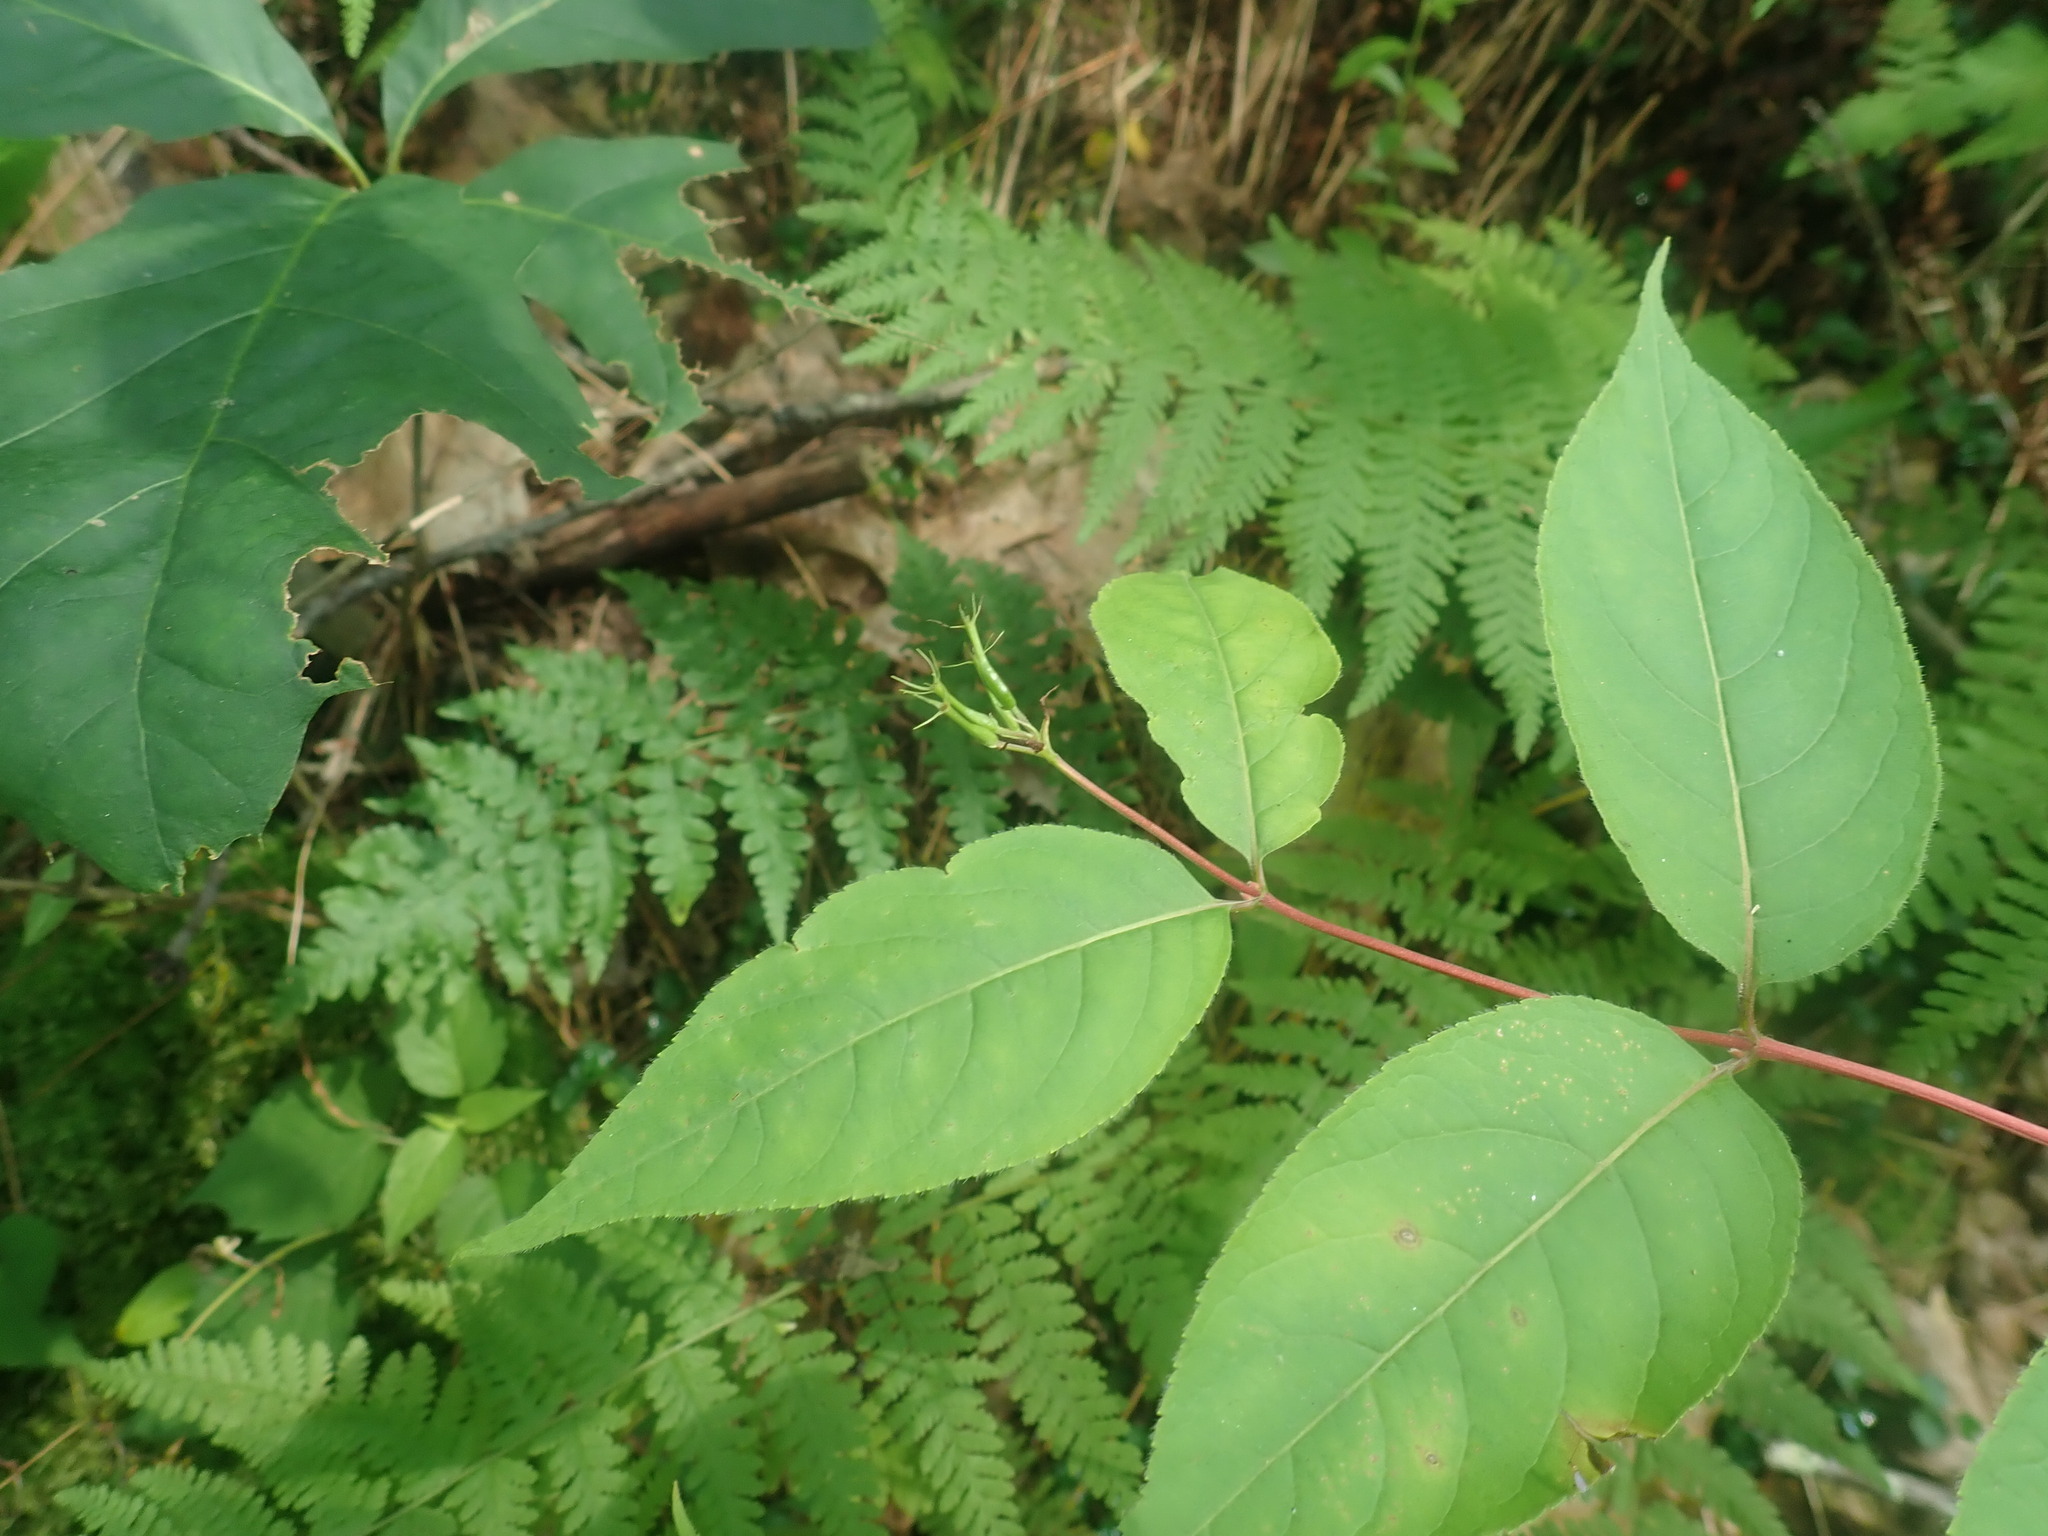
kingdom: Plantae
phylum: Tracheophyta
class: Magnoliopsida
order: Dipsacales
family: Caprifoliaceae
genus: Diervilla
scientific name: Diervilla lonicera
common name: Bush-honeysuckle
